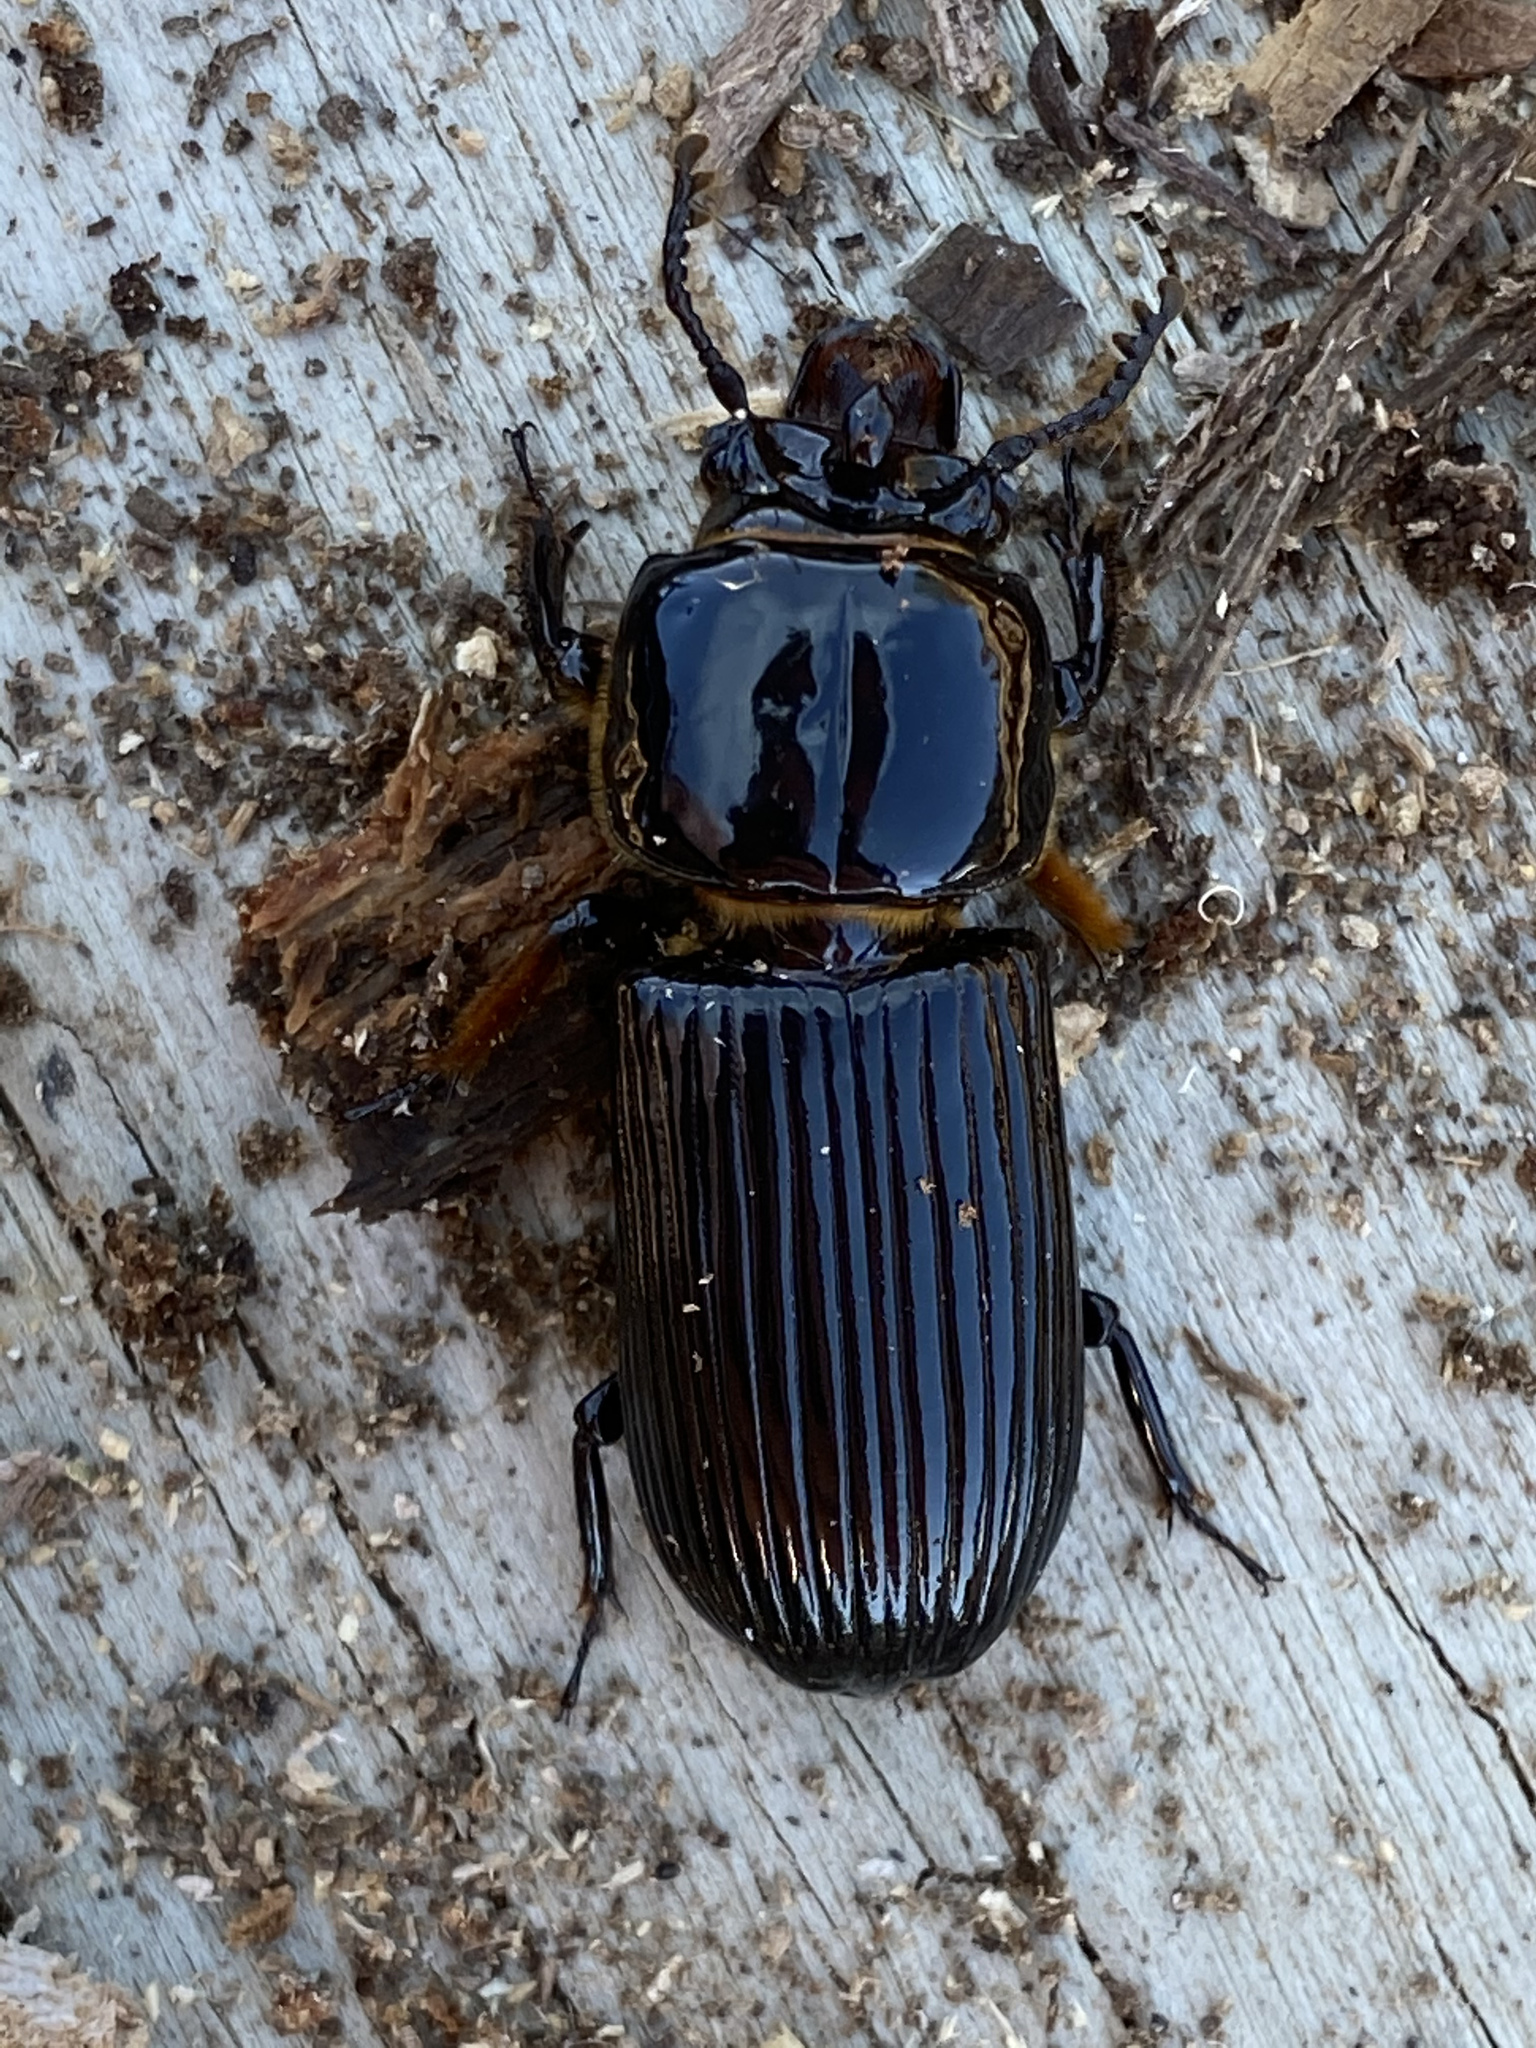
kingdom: Animalia
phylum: Arthropoda
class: Insecta
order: Coleoptera
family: Passalidae
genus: Odontotaenius
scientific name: Odontotaenius disjunctus
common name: Patent leather beetle
